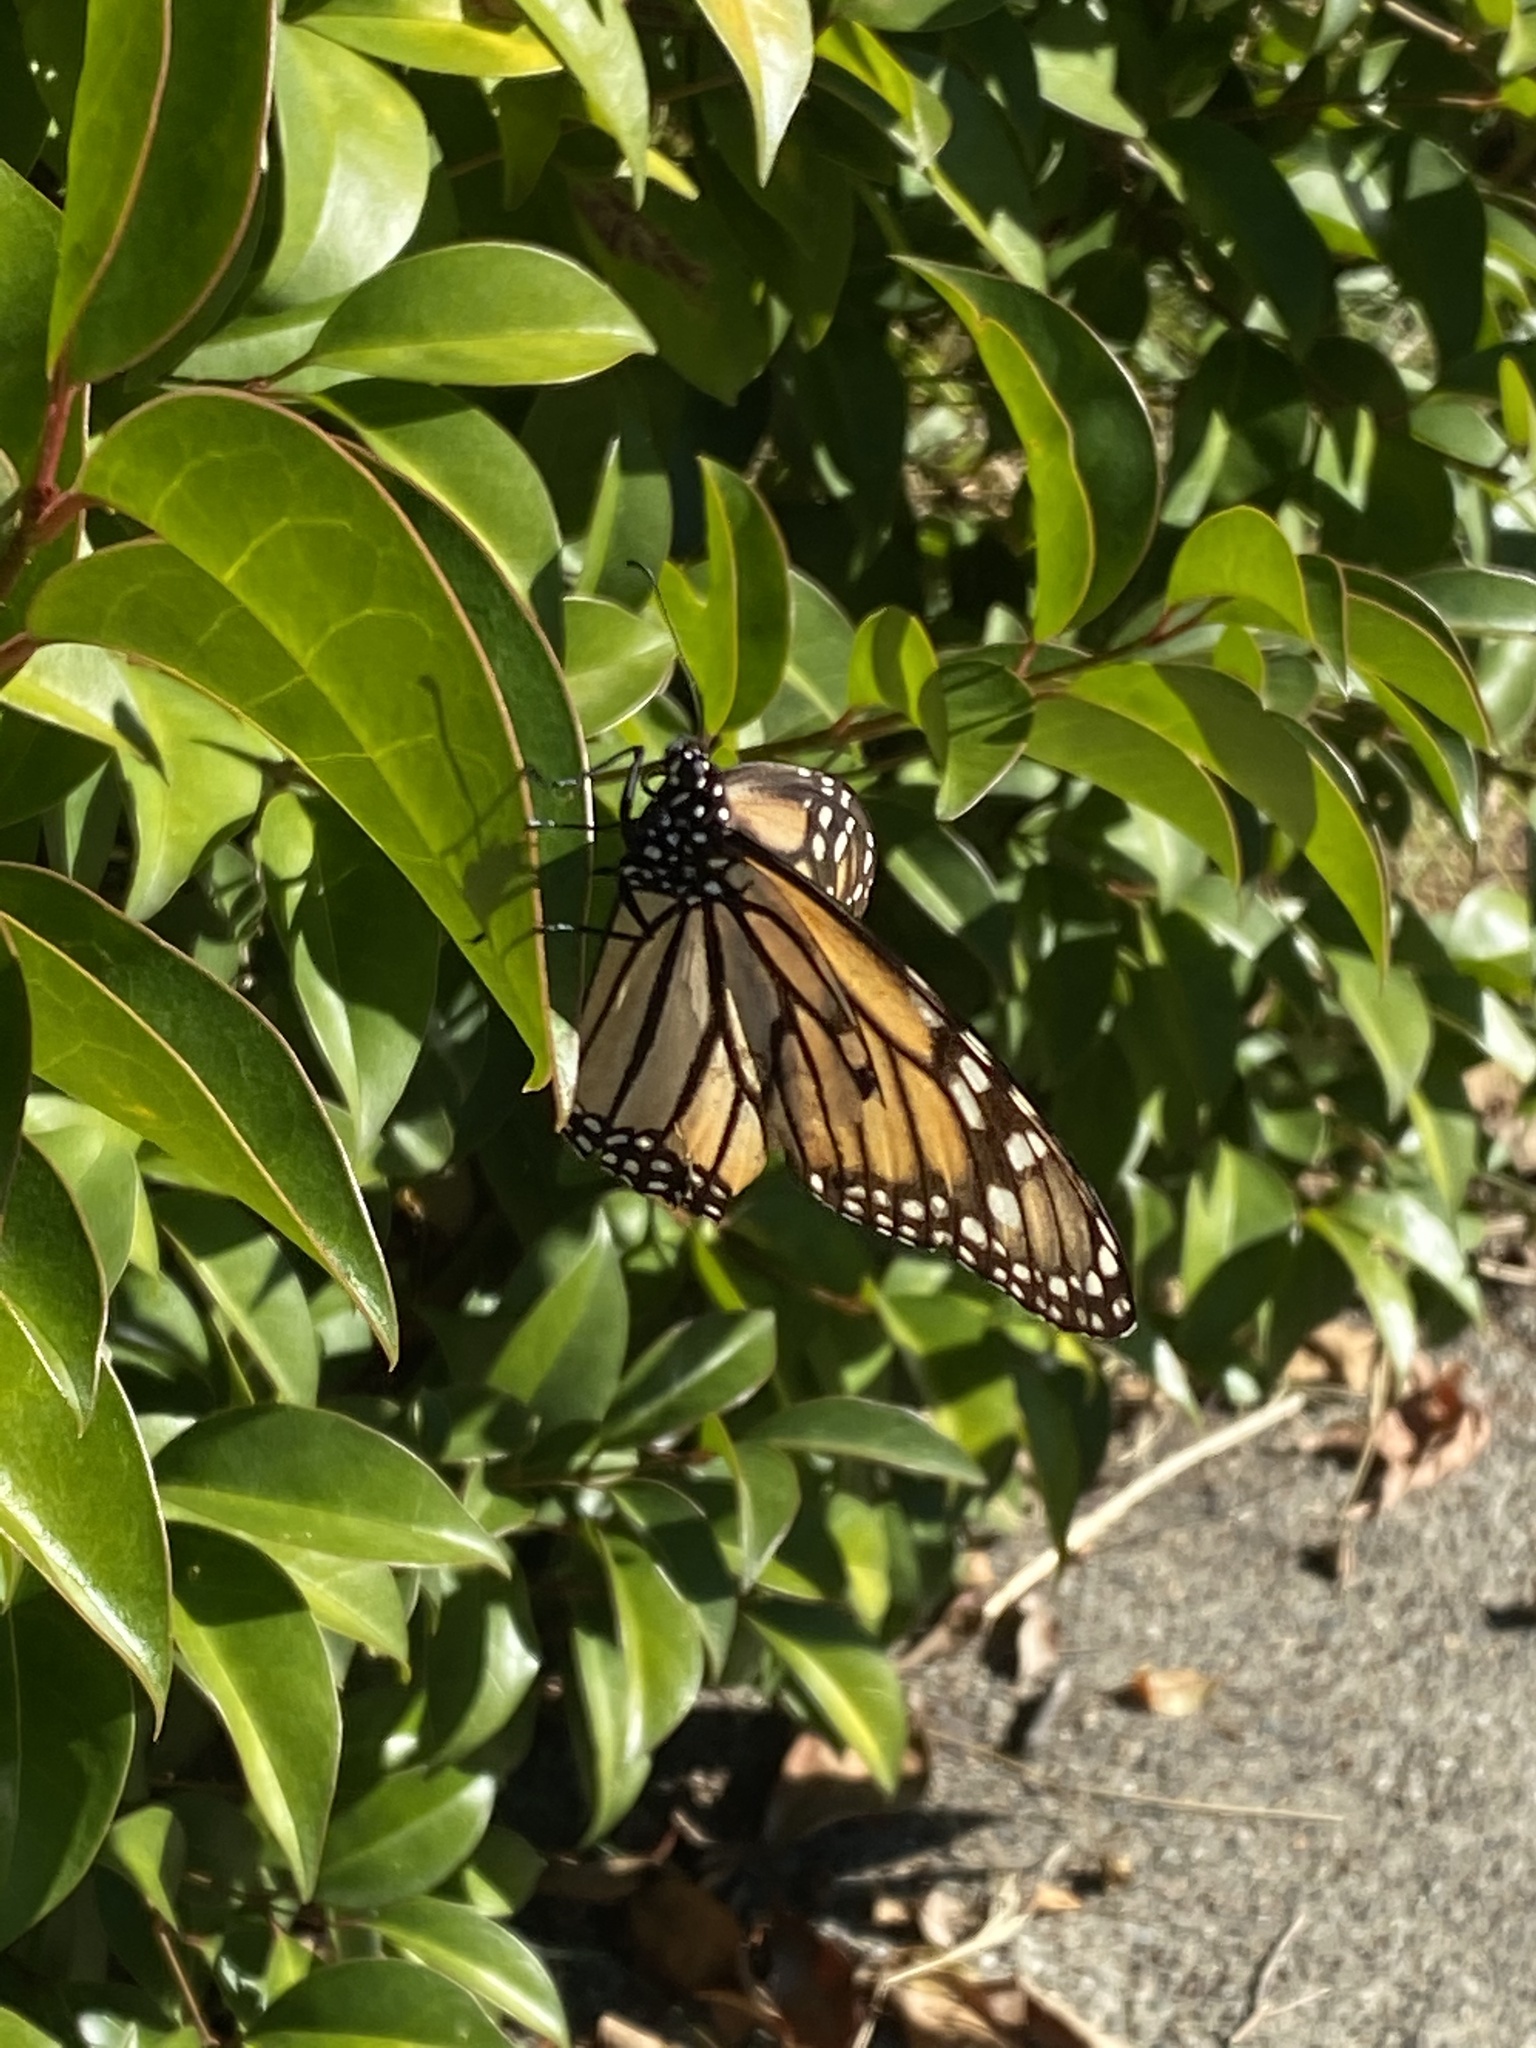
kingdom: Animalia
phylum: Arthropoda
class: Insecta
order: Lepidoptera
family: Nymphalidae
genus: Danaus
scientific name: Danaus plexippus
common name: Monarch
